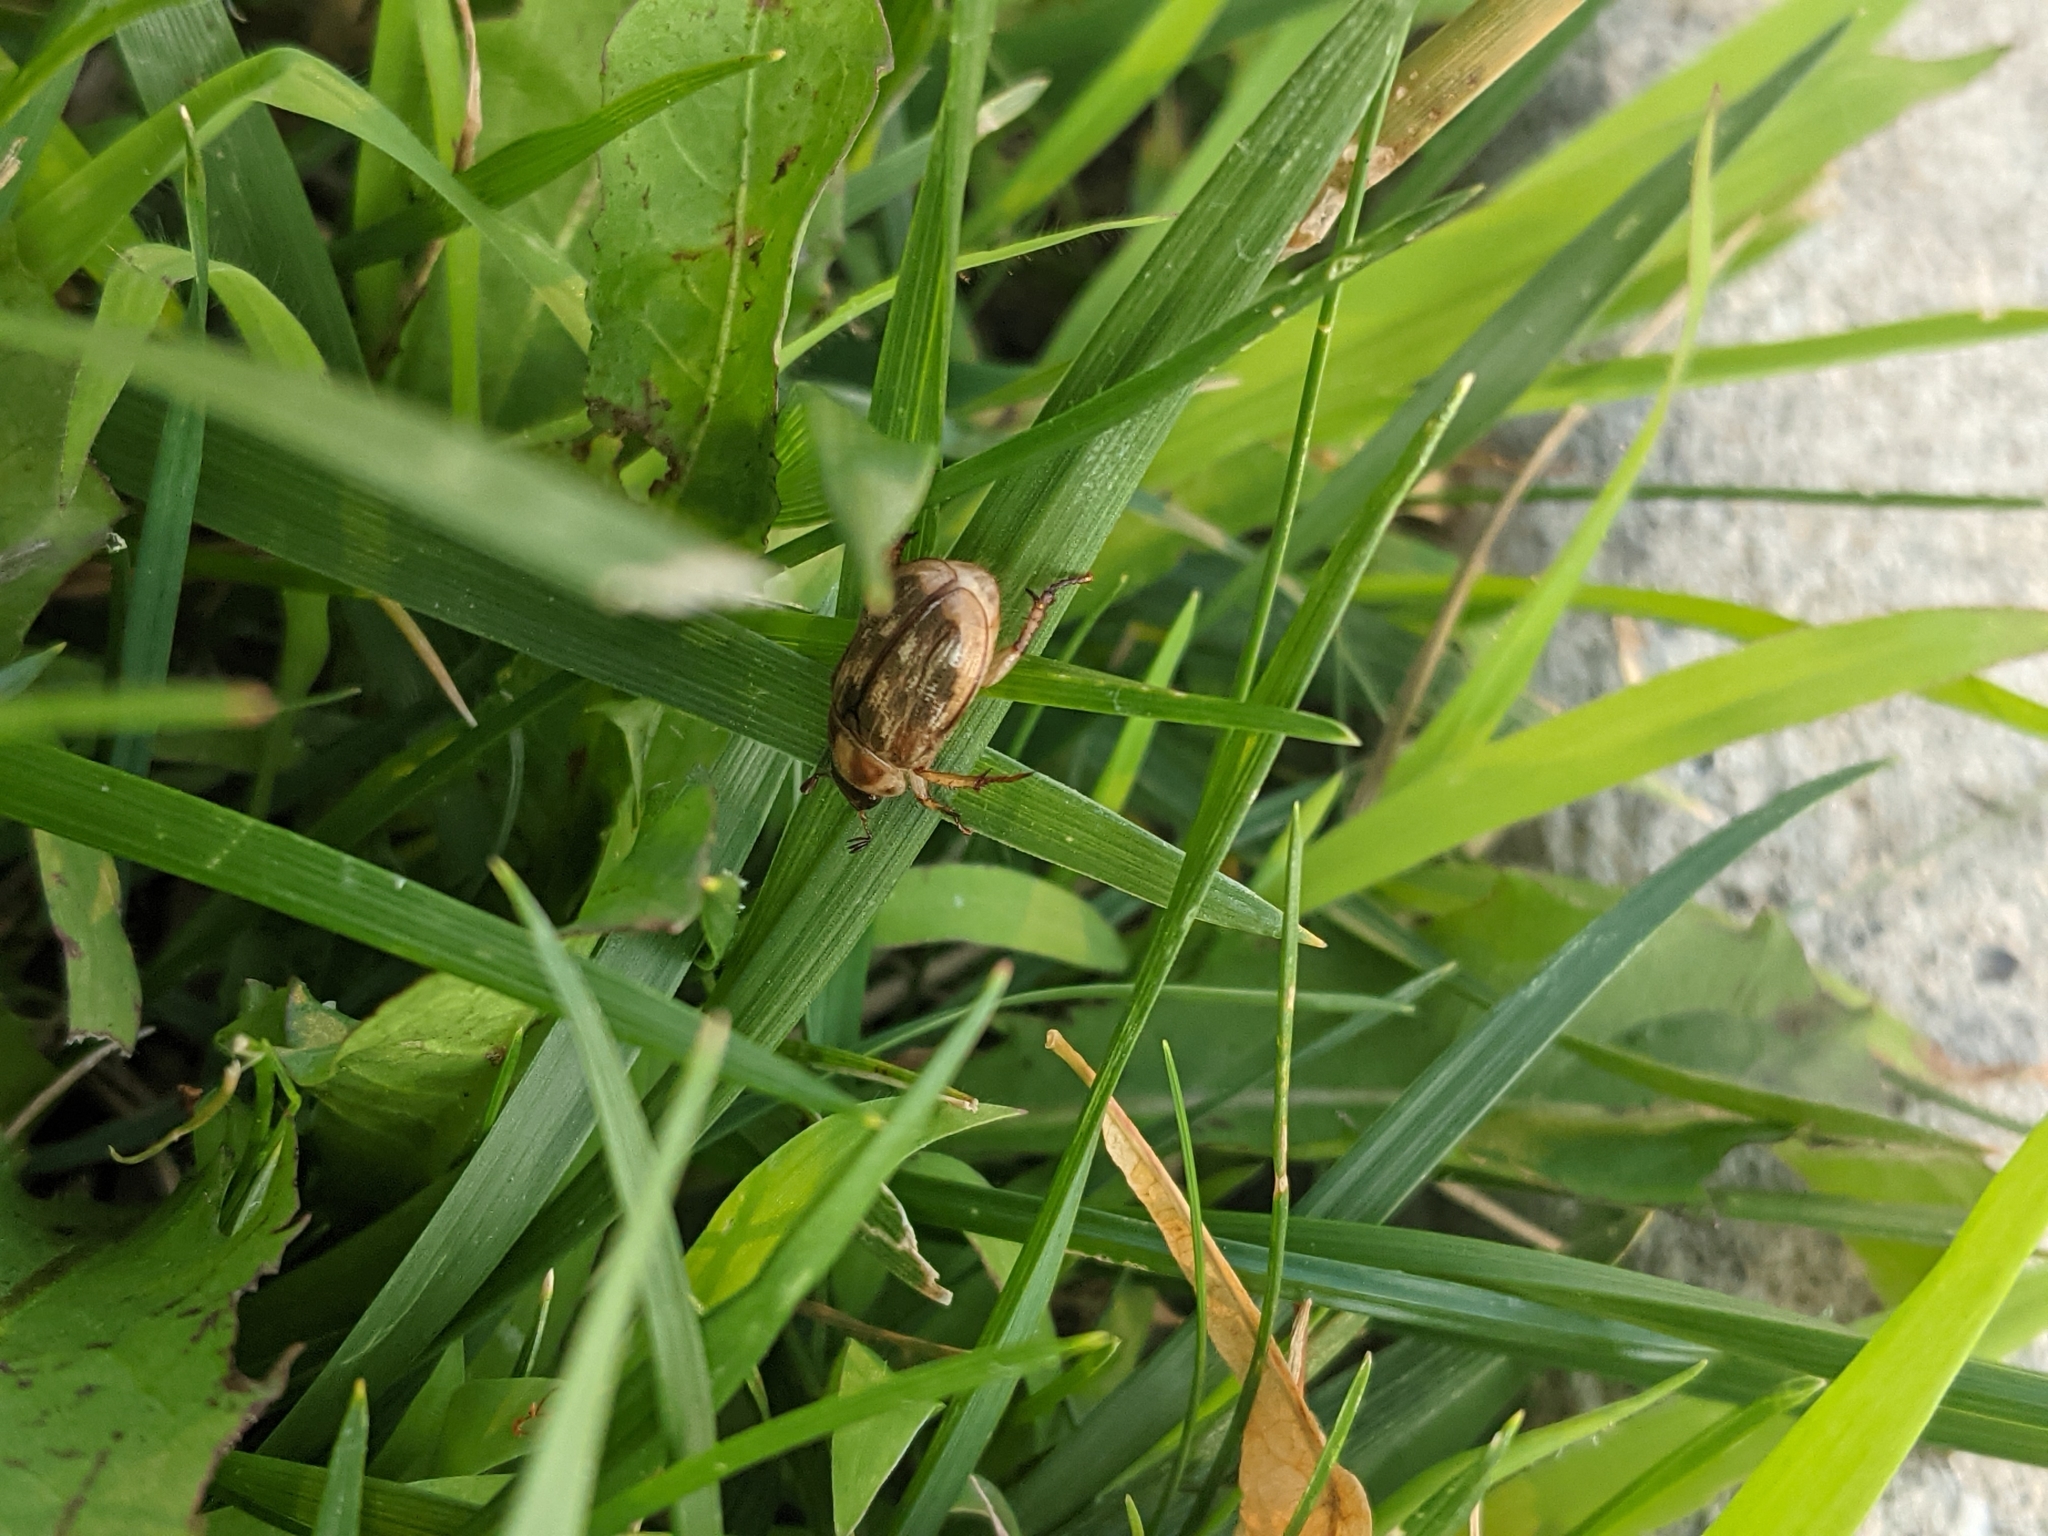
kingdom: Animalia
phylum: Arthropoda
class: Insecta
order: Coleoptera
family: Scarabaeidae
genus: Exomala
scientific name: Exomala orientalis
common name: Oriental beetle
